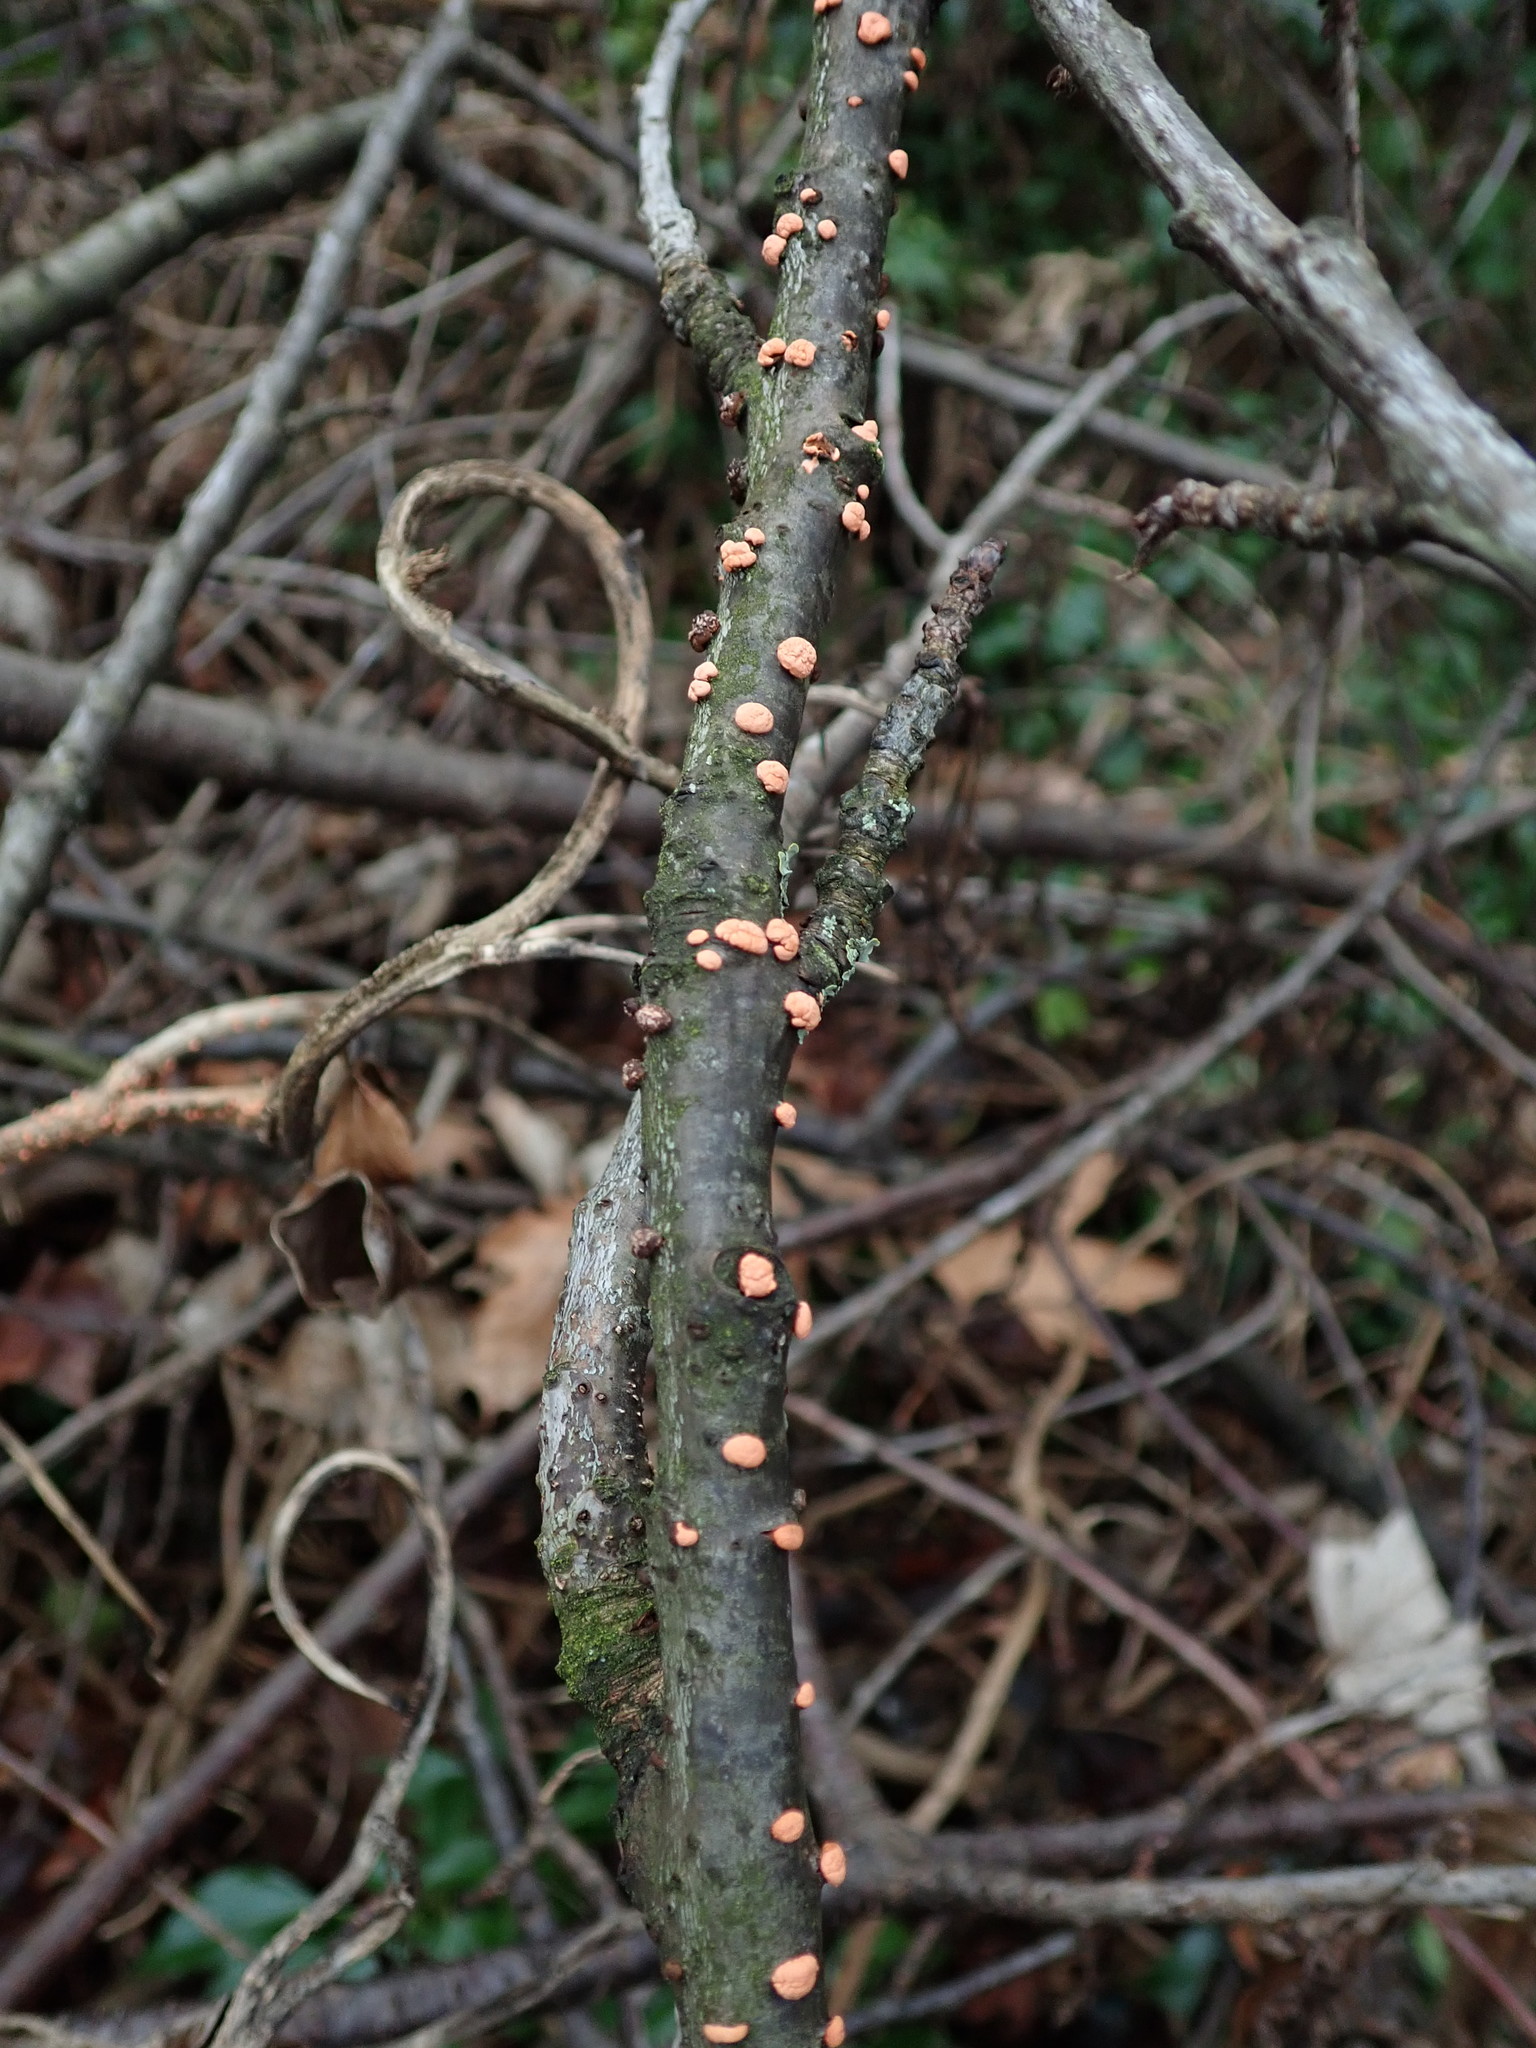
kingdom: Fungi
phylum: Ascomycota
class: Sordariomycetes
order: Hypocreales
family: Nectriaceae
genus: Nectria
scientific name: Nectria cinnabarina
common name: Coral spot
